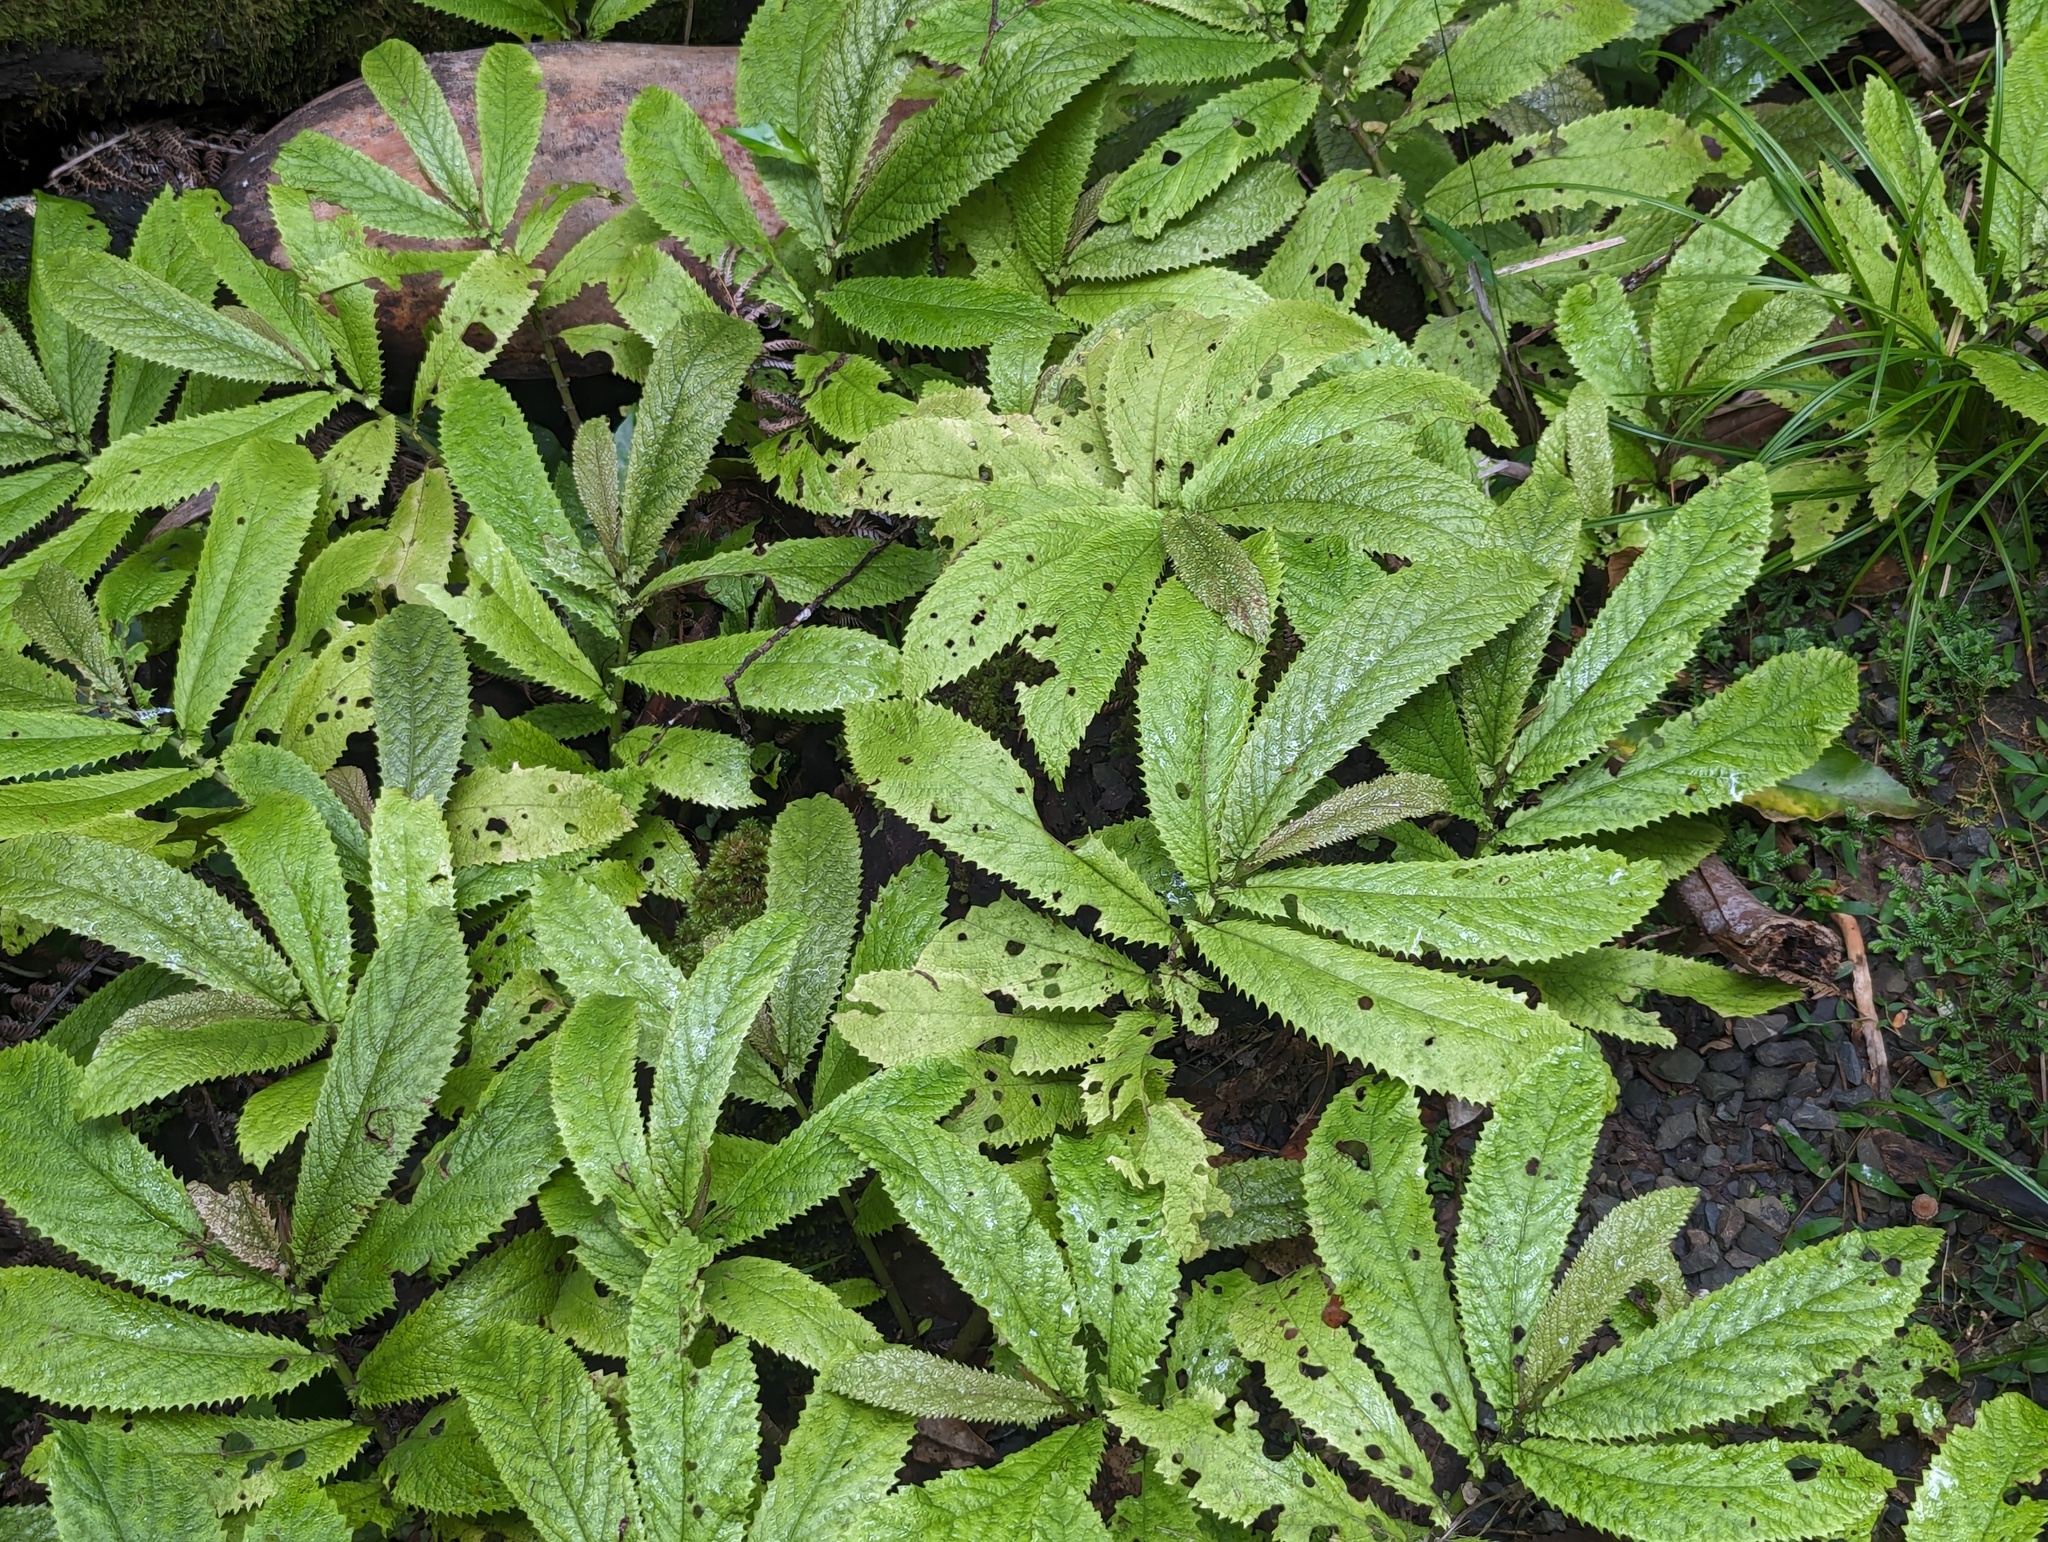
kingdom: Plantae
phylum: Tracheophyta
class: Magnoliopsida
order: Rosales
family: Urticaceae
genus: Elatostema
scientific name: Elatostema rugosum
